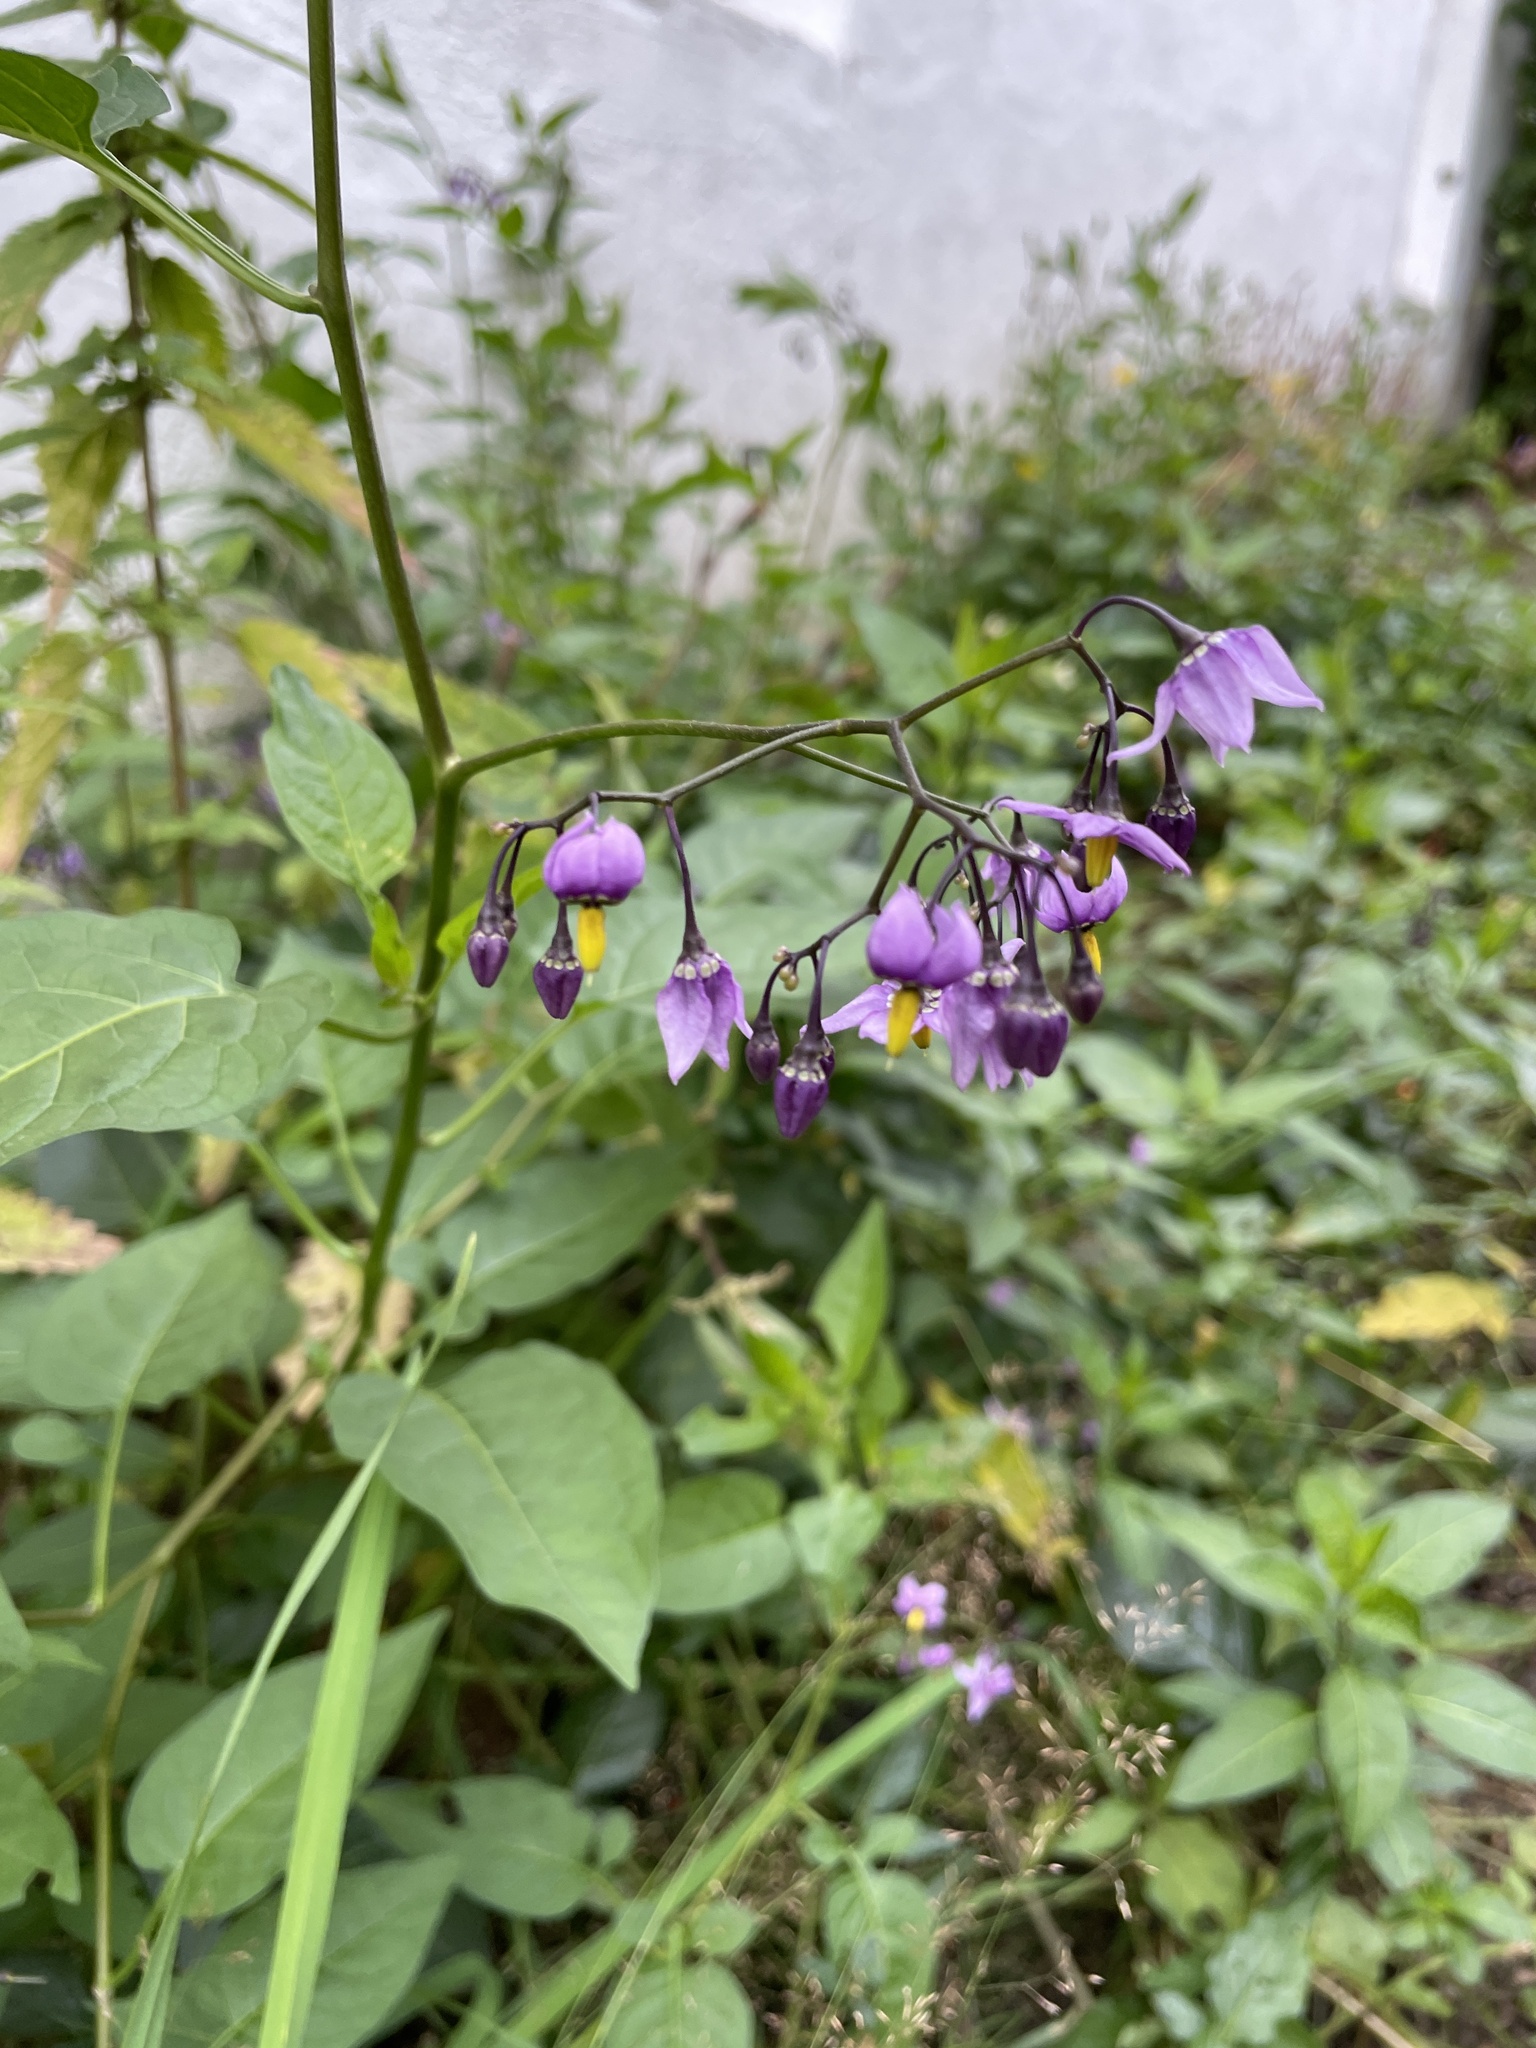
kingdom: Plantae
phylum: Tracheophyta
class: Magnoliopsida
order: Solanales
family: Solanaceae
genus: Solanum
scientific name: Solanum dulcamara
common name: Climbing nightshade
